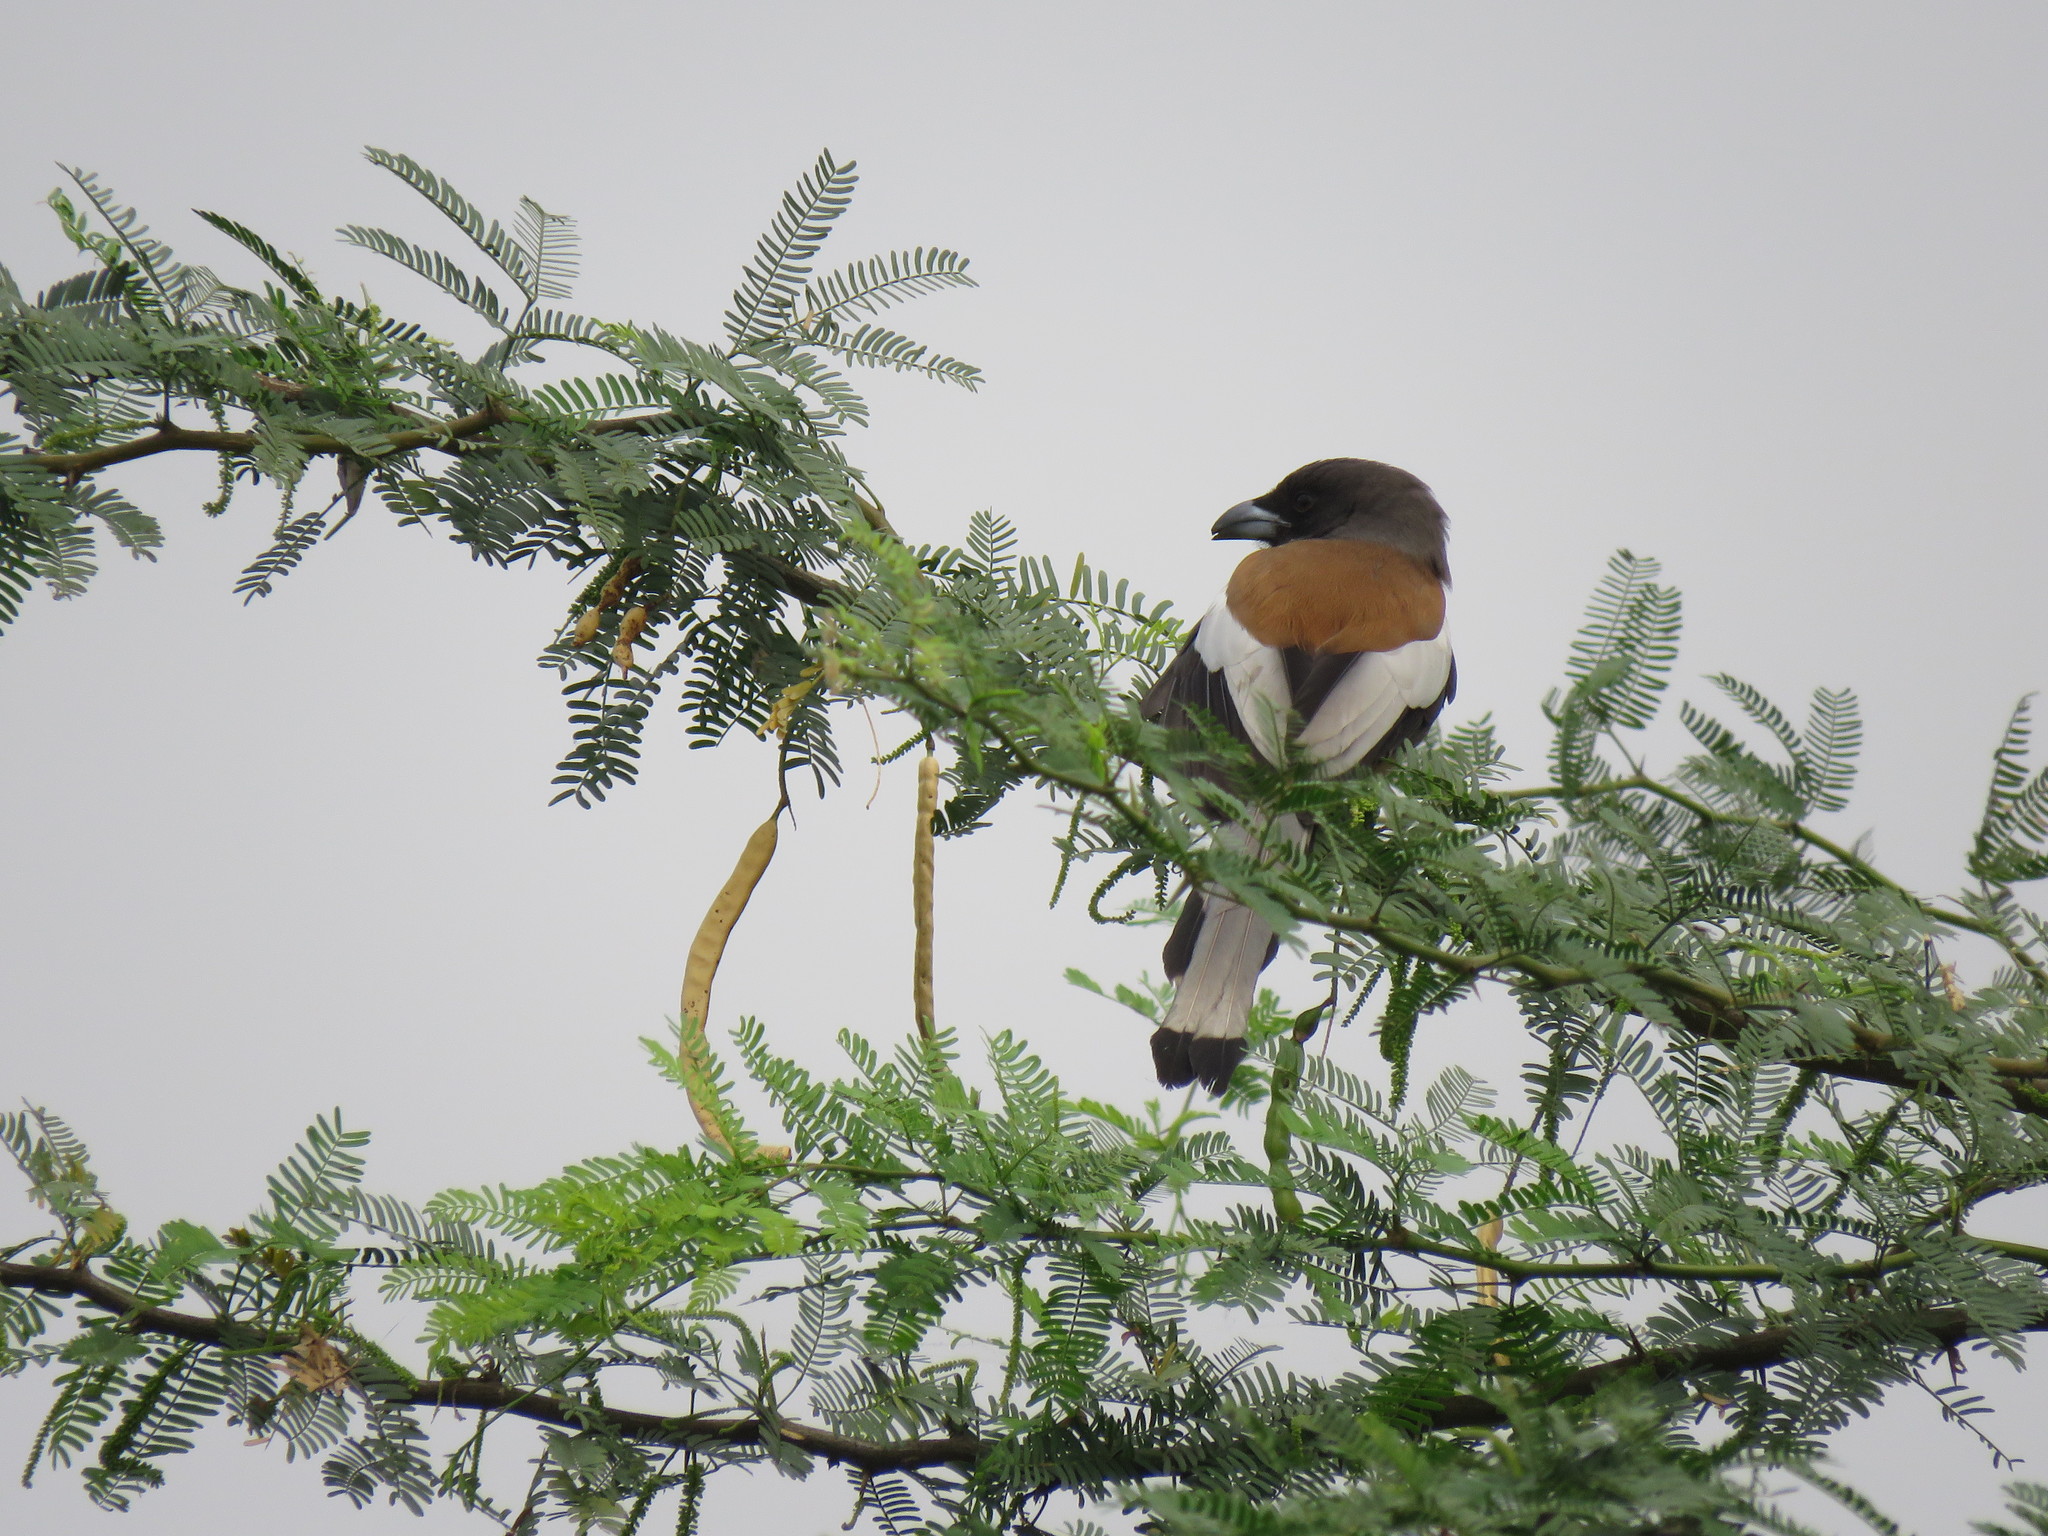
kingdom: Animalia
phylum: Chordata
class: Aves
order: Passeriformes
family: Corvidae
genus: Dendrocitta
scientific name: Dendrocitta vagabunda
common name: Rufous treepie
